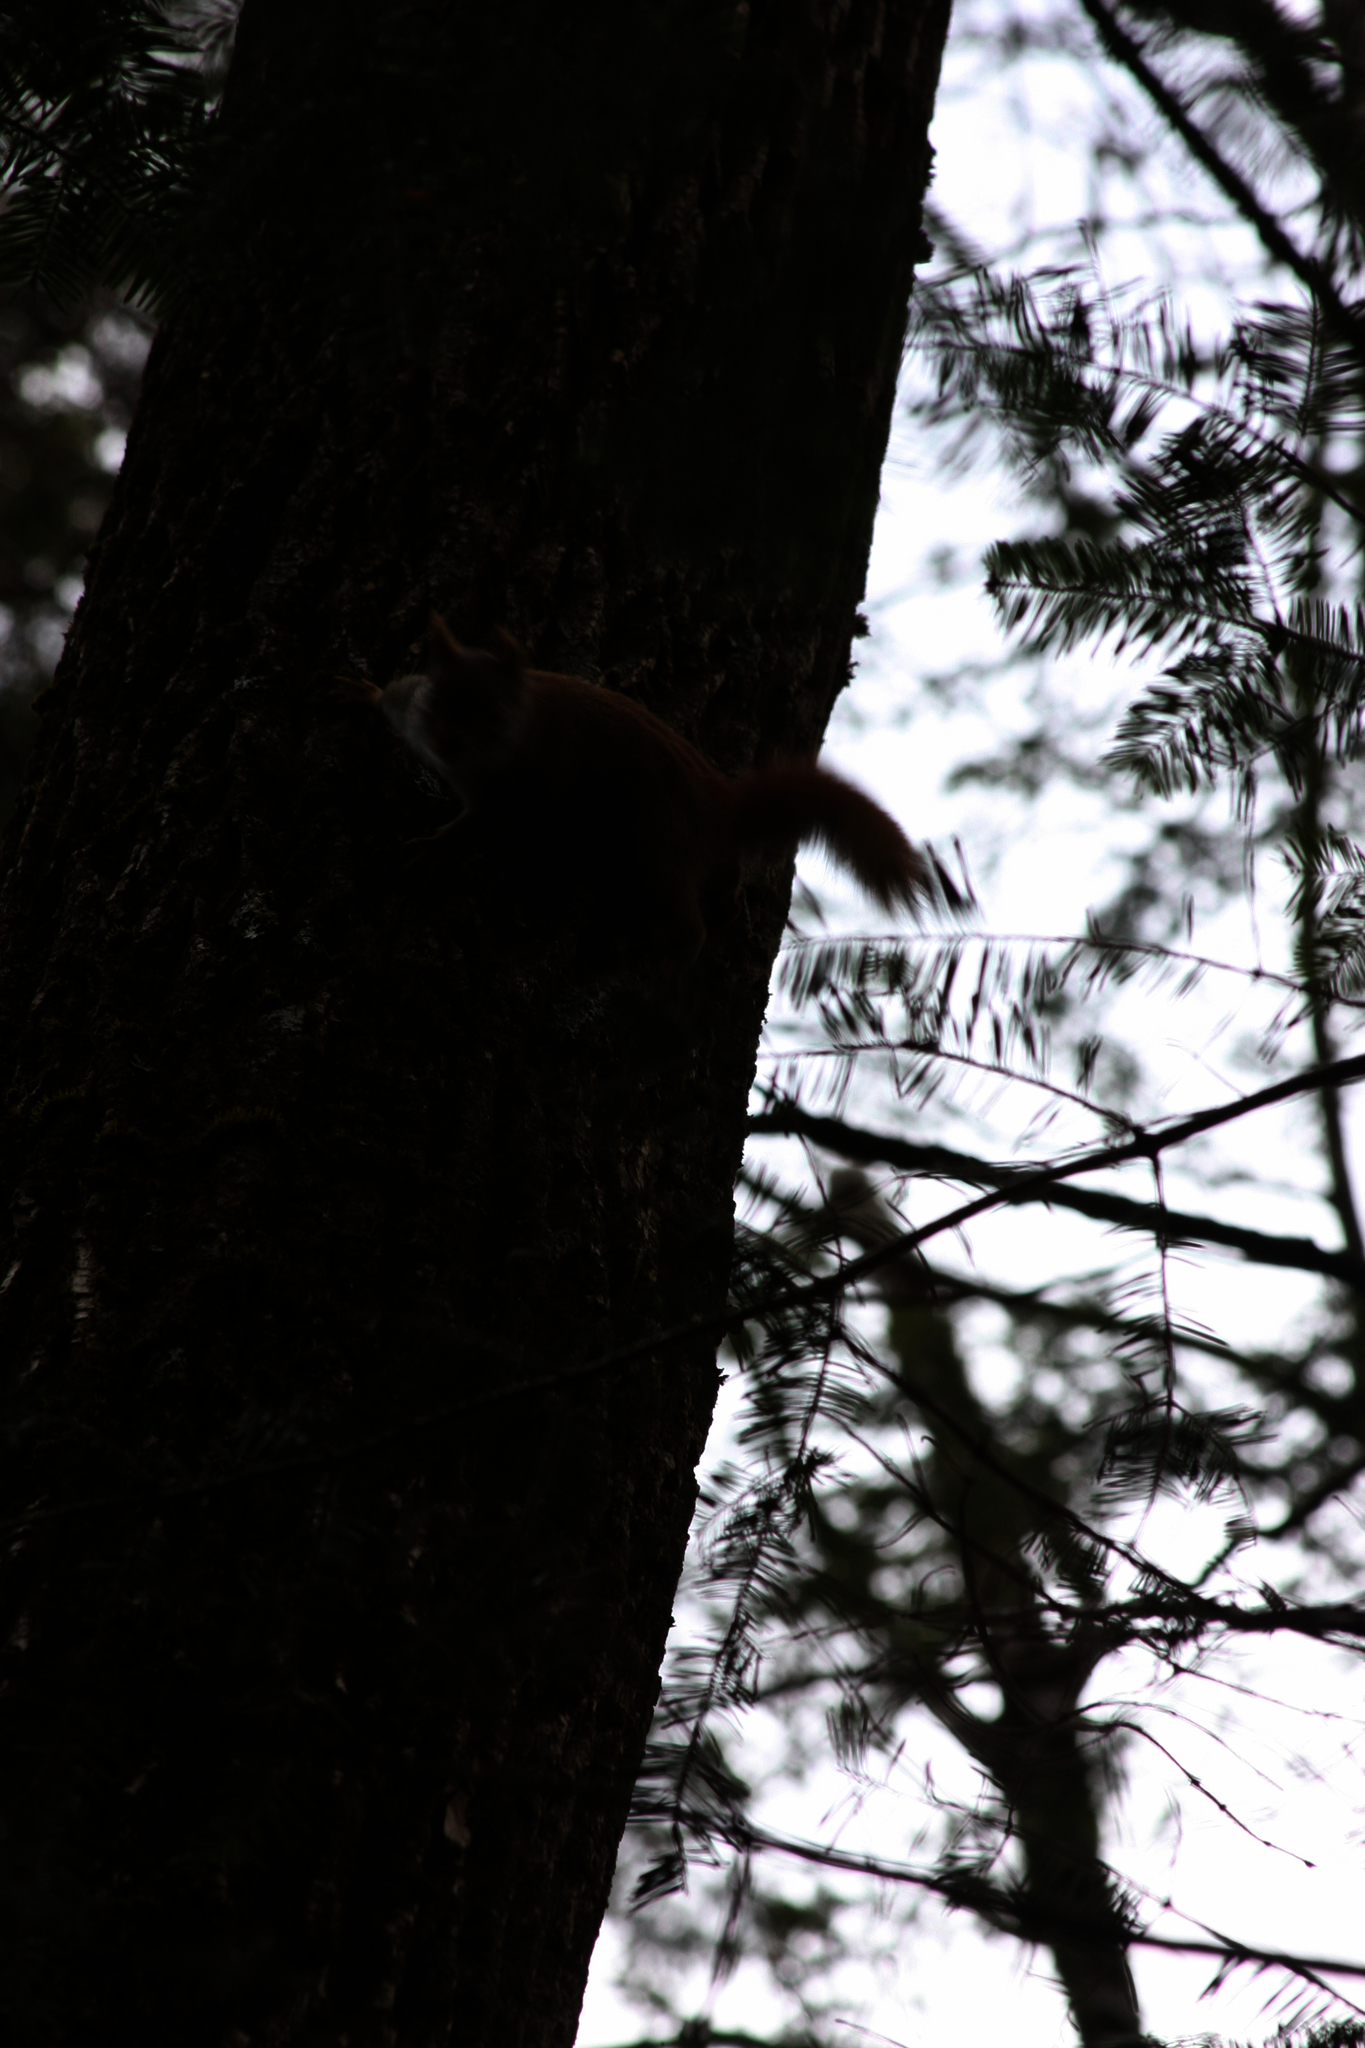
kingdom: Animalia
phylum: Chordata
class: Mammalia
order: Rodentia
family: Sciuridae
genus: Tamiasciurus
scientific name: Tamiasciurus hudsonicus
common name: Red squirrel
